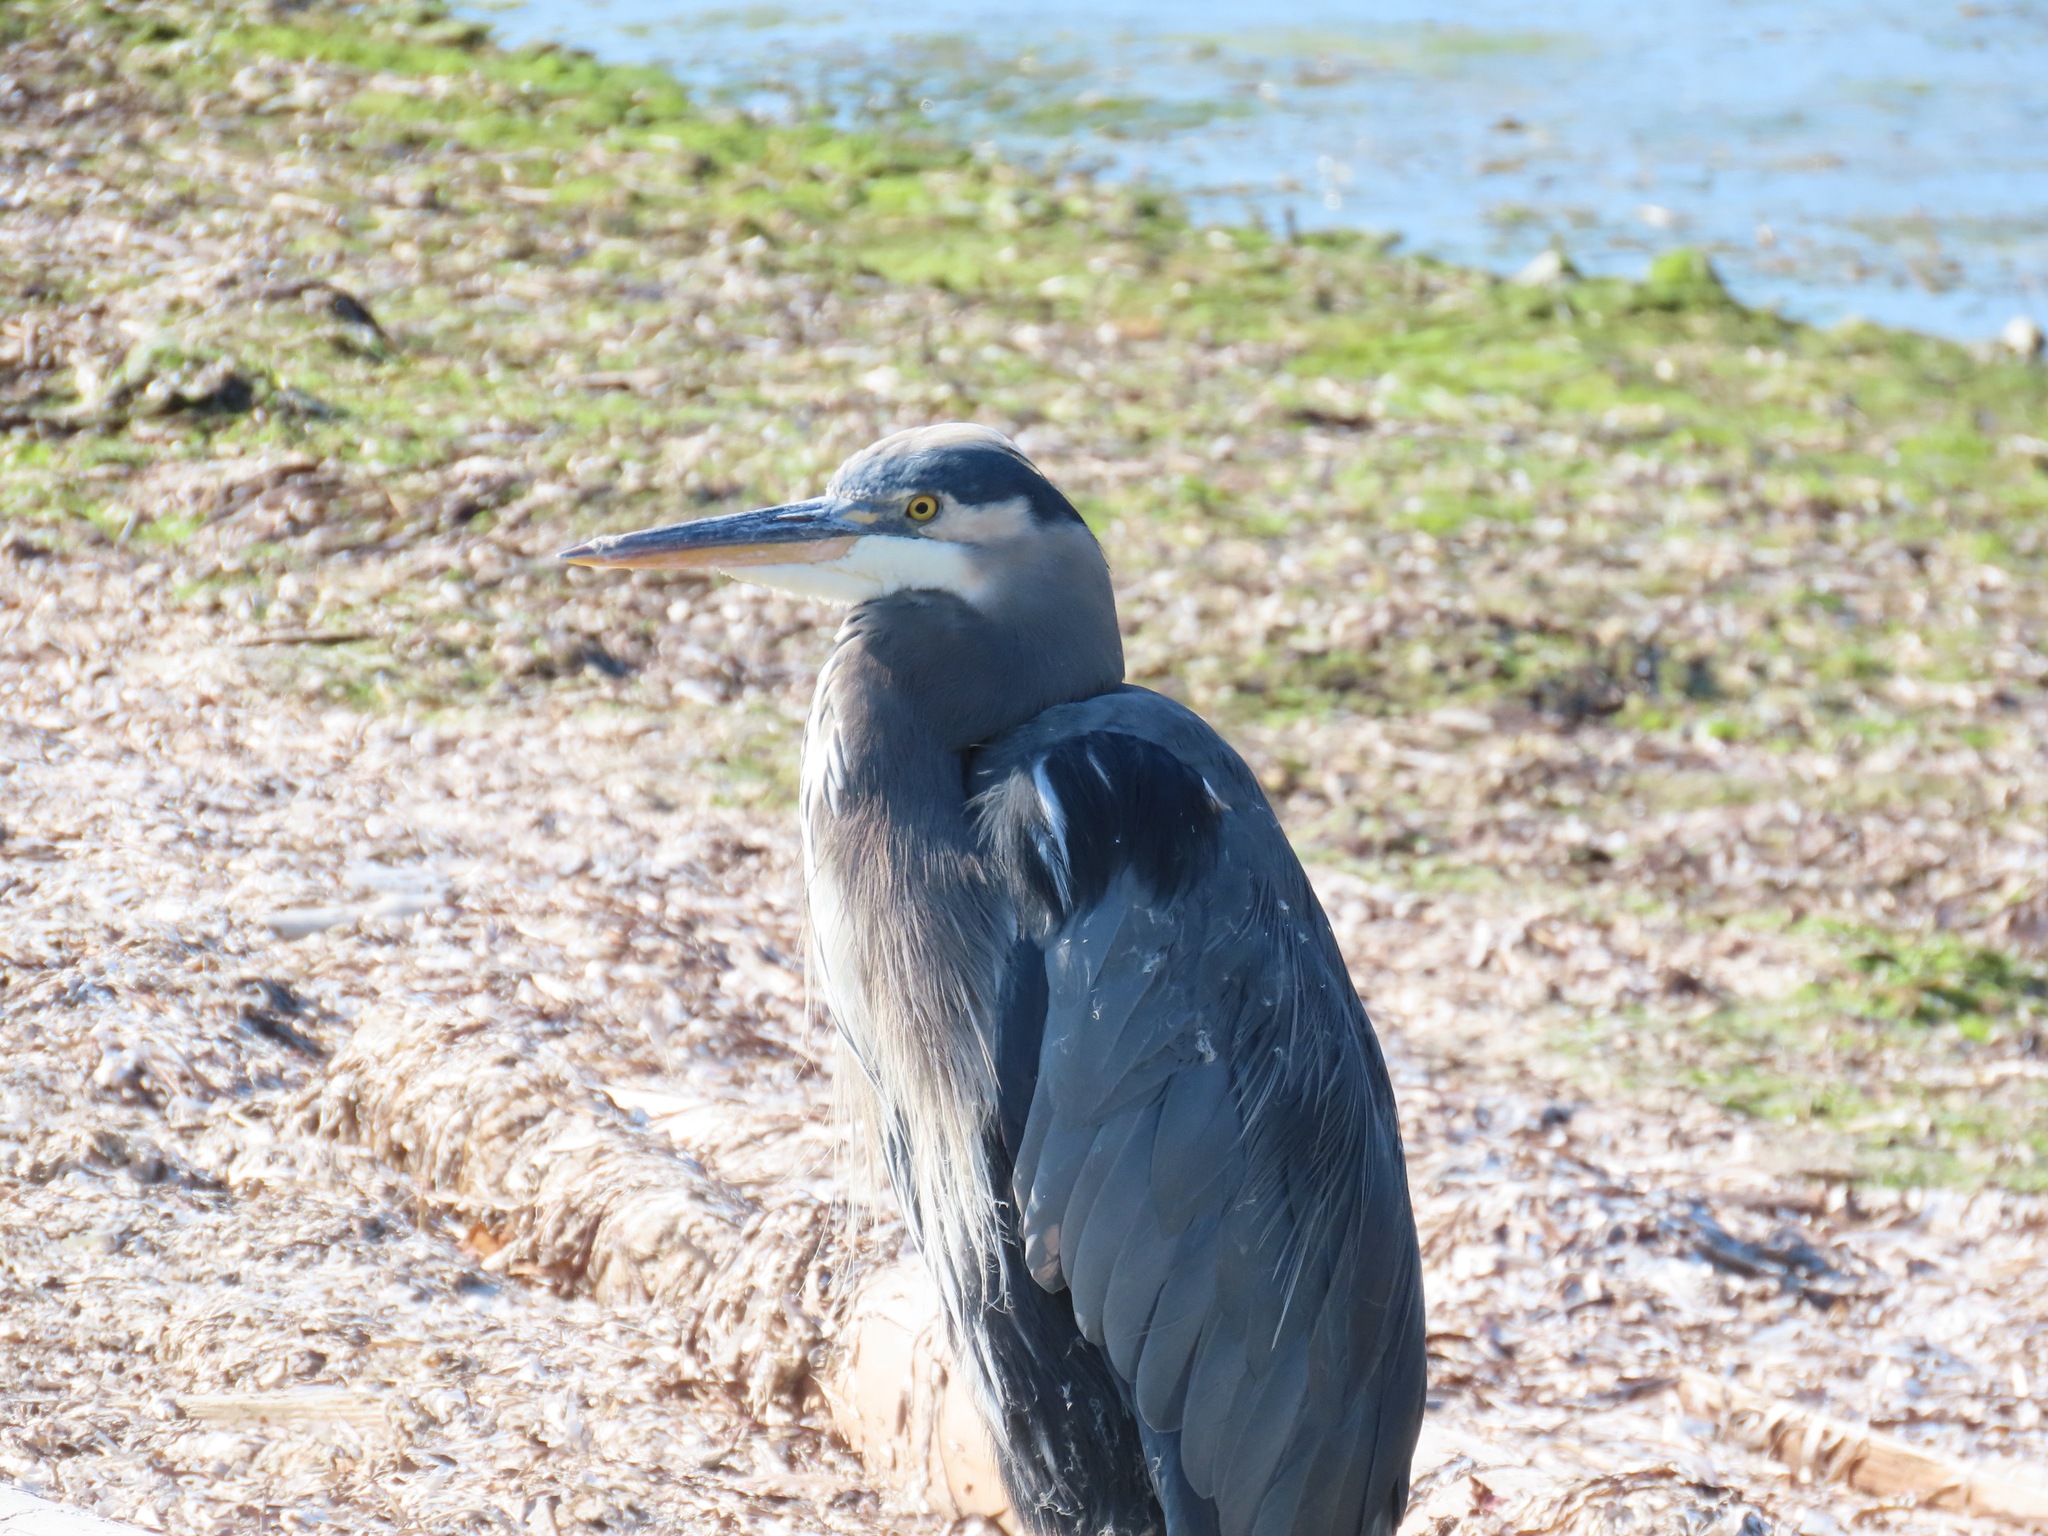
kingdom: Animalia
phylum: Chordata
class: Aves
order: Pelecaniformes
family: Ardeidae
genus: Ardea
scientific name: Ardea herodias
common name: Great blue heron
